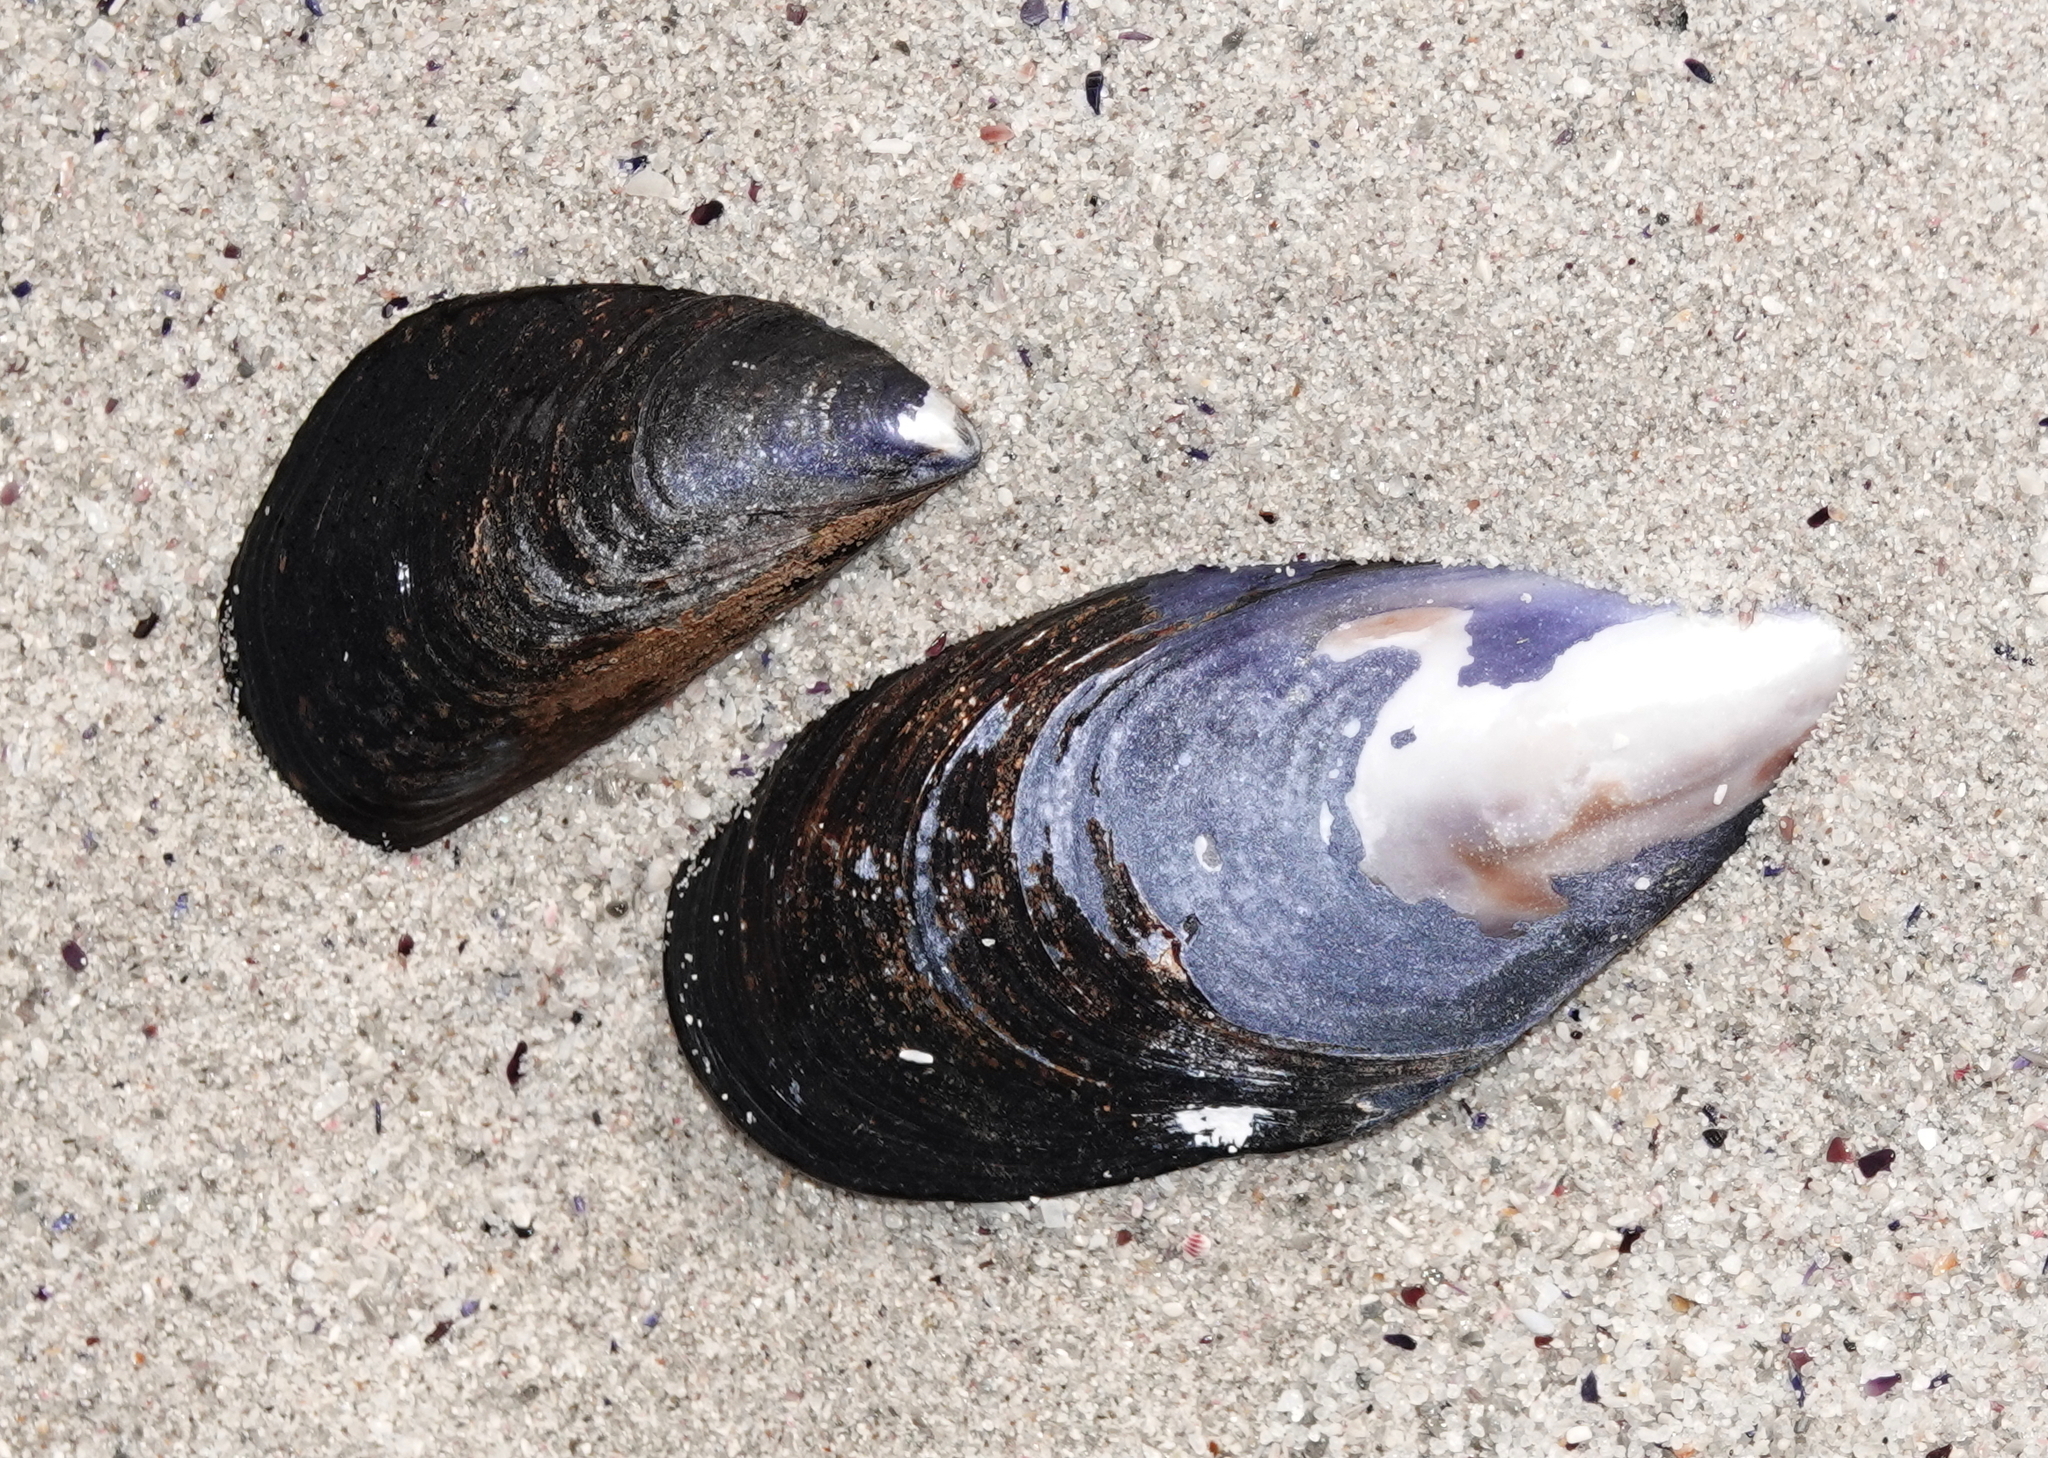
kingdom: Animalia
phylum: Mollusca
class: Bivalvia
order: Mytilida
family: Mytilidae
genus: Mytilus
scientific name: Mytilus galloprovincialis
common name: Mediterranean mussel
